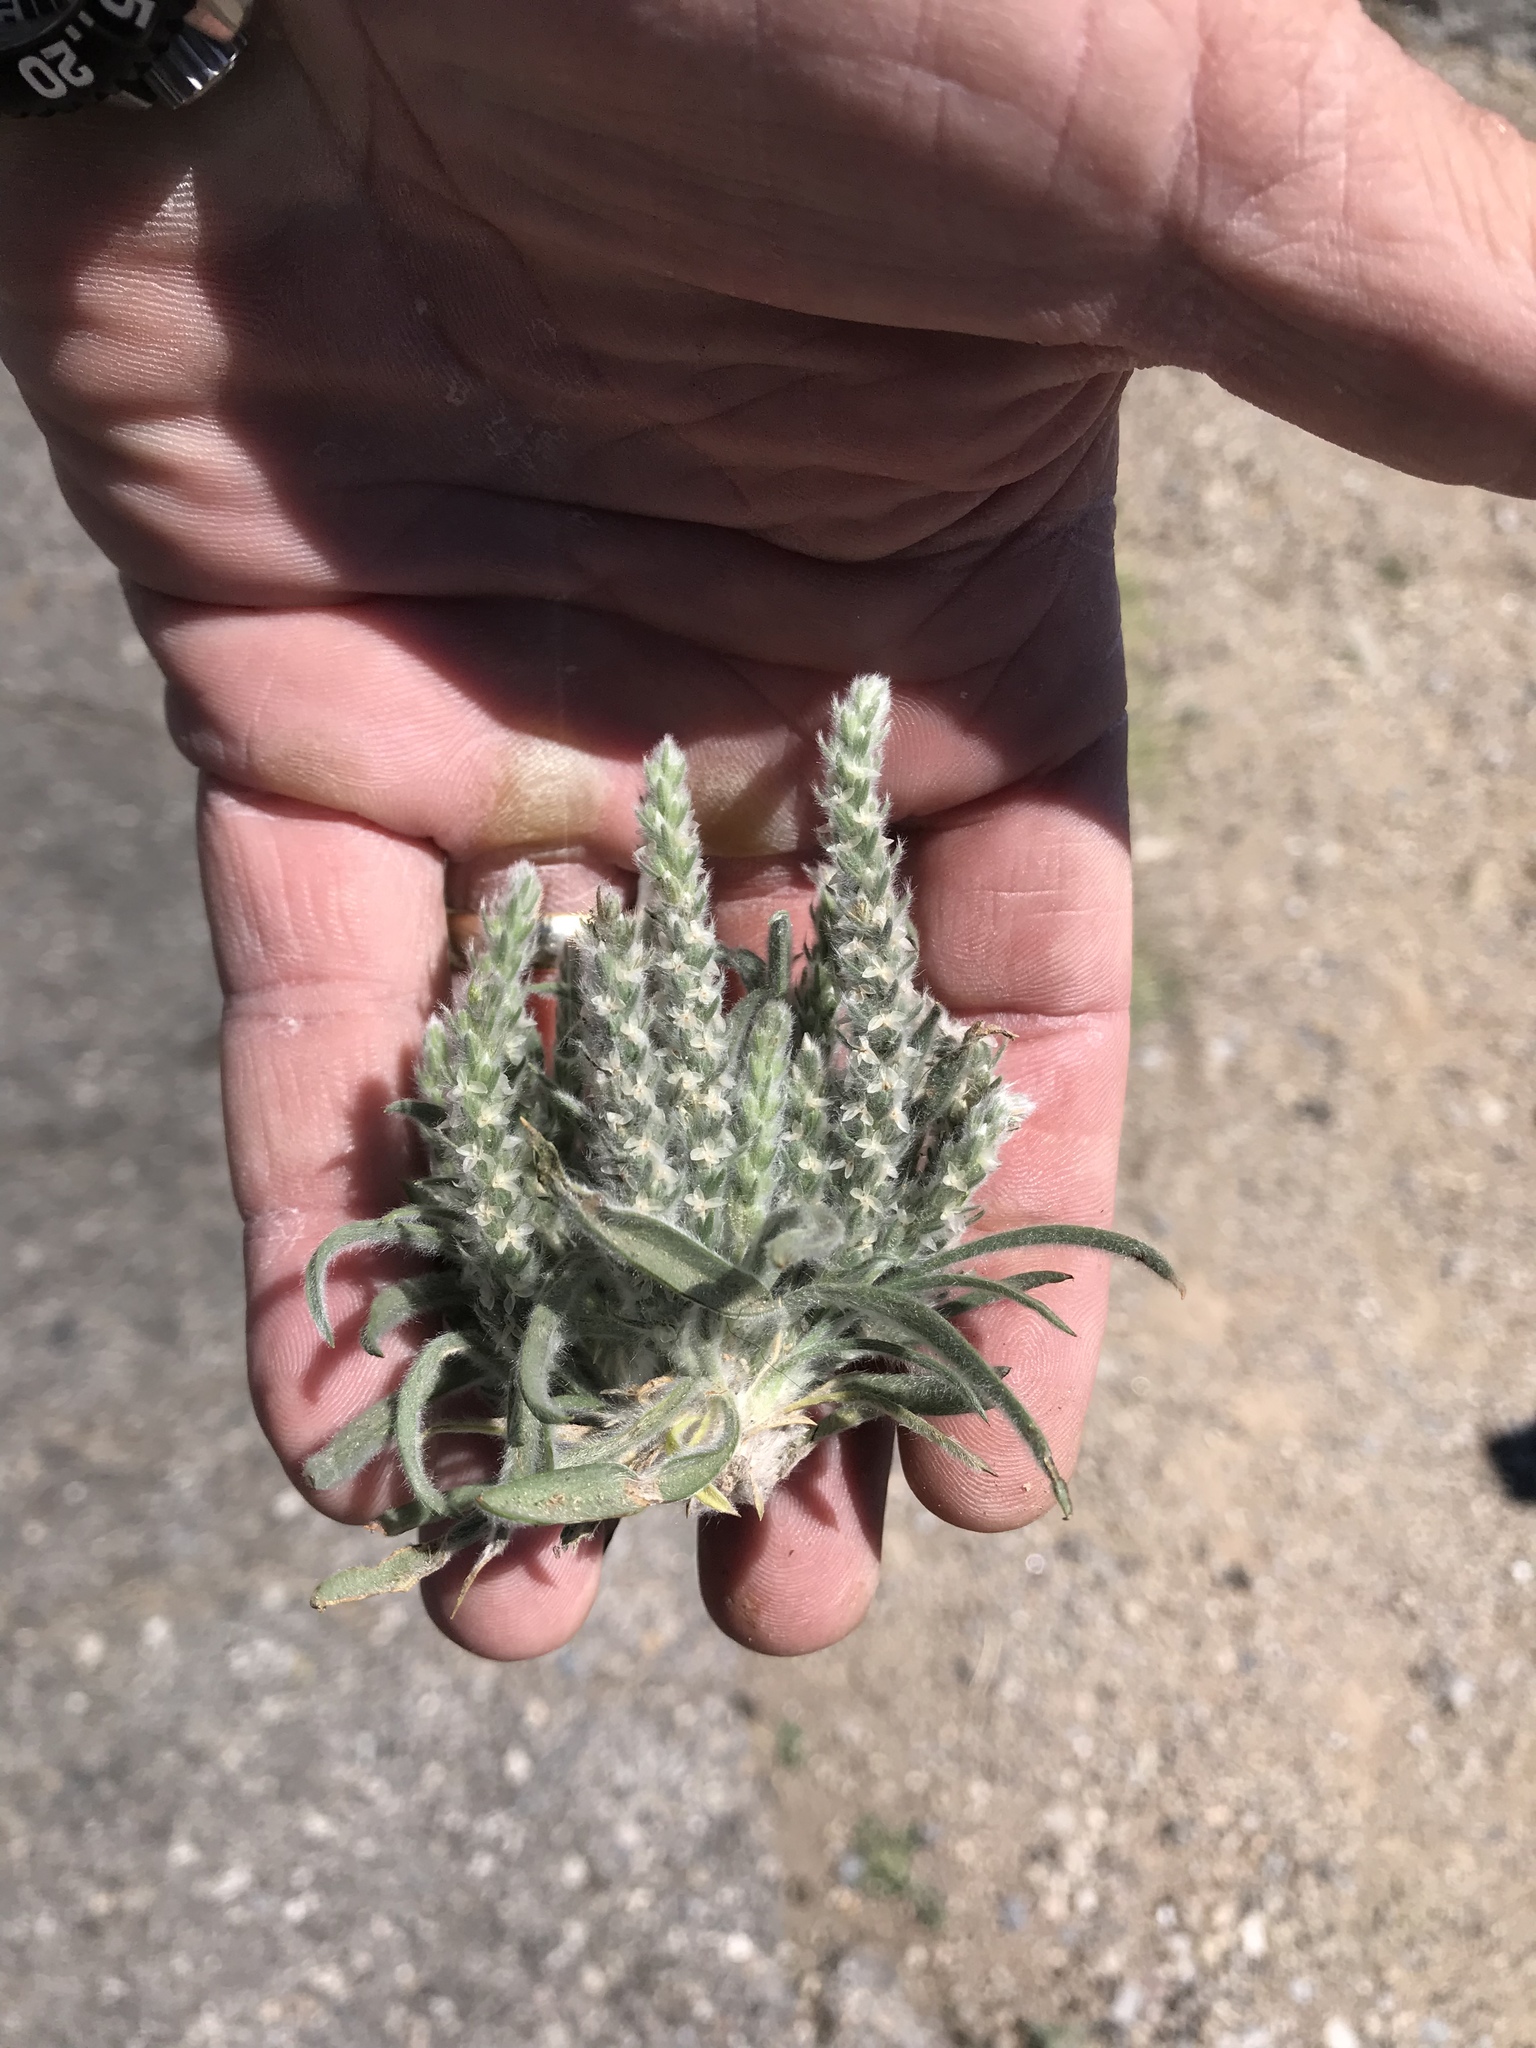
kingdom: Plantae
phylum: Tracheophyta
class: Magnoliopsida
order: Lamiales
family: Plantaginaceae
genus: Plantago
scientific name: Plantago patagonica
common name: Patagonia indian-wheat
